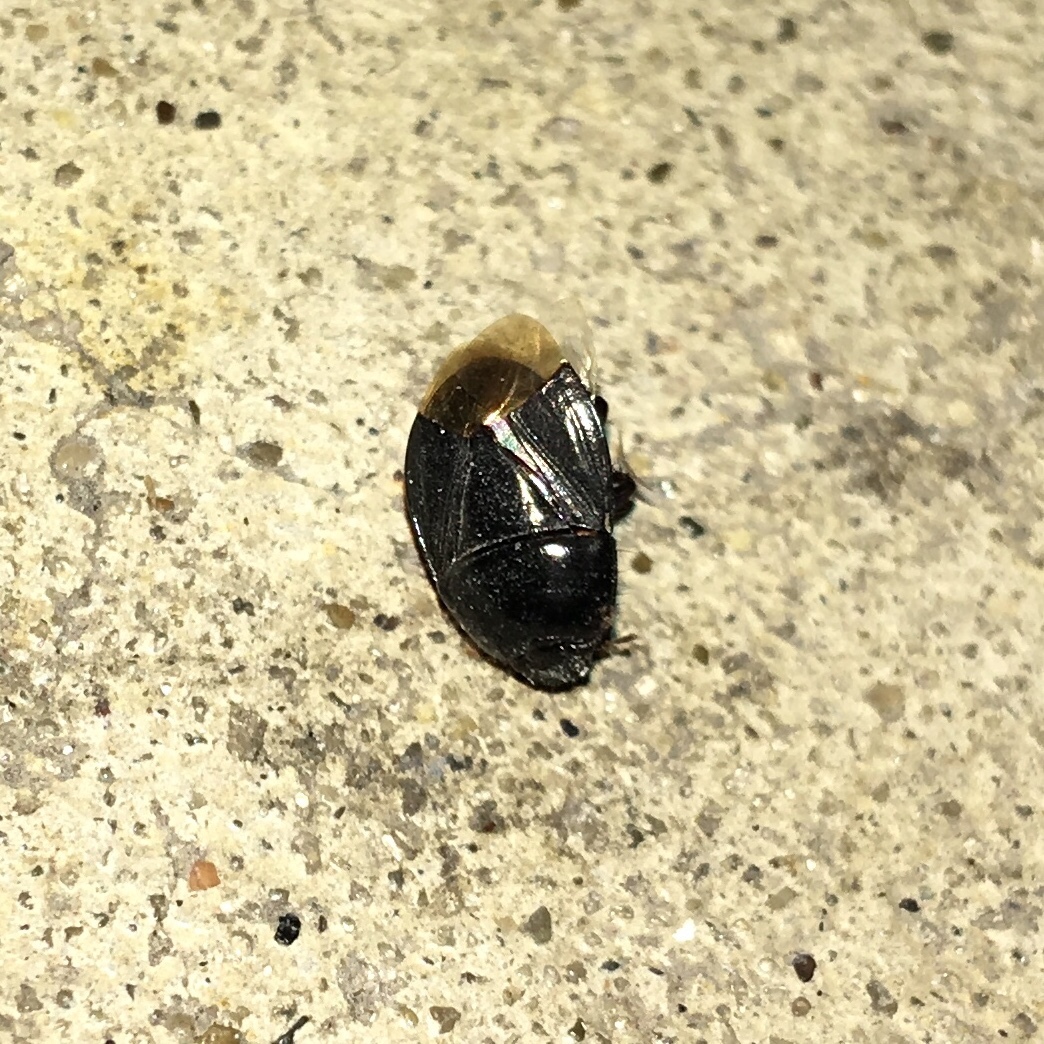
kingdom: Animalia
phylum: Arthropoda
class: Insecta
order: Hemiptera
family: Cydnidae
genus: Pangaeus
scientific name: Pangaeus bilineatus
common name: Burrower bug
